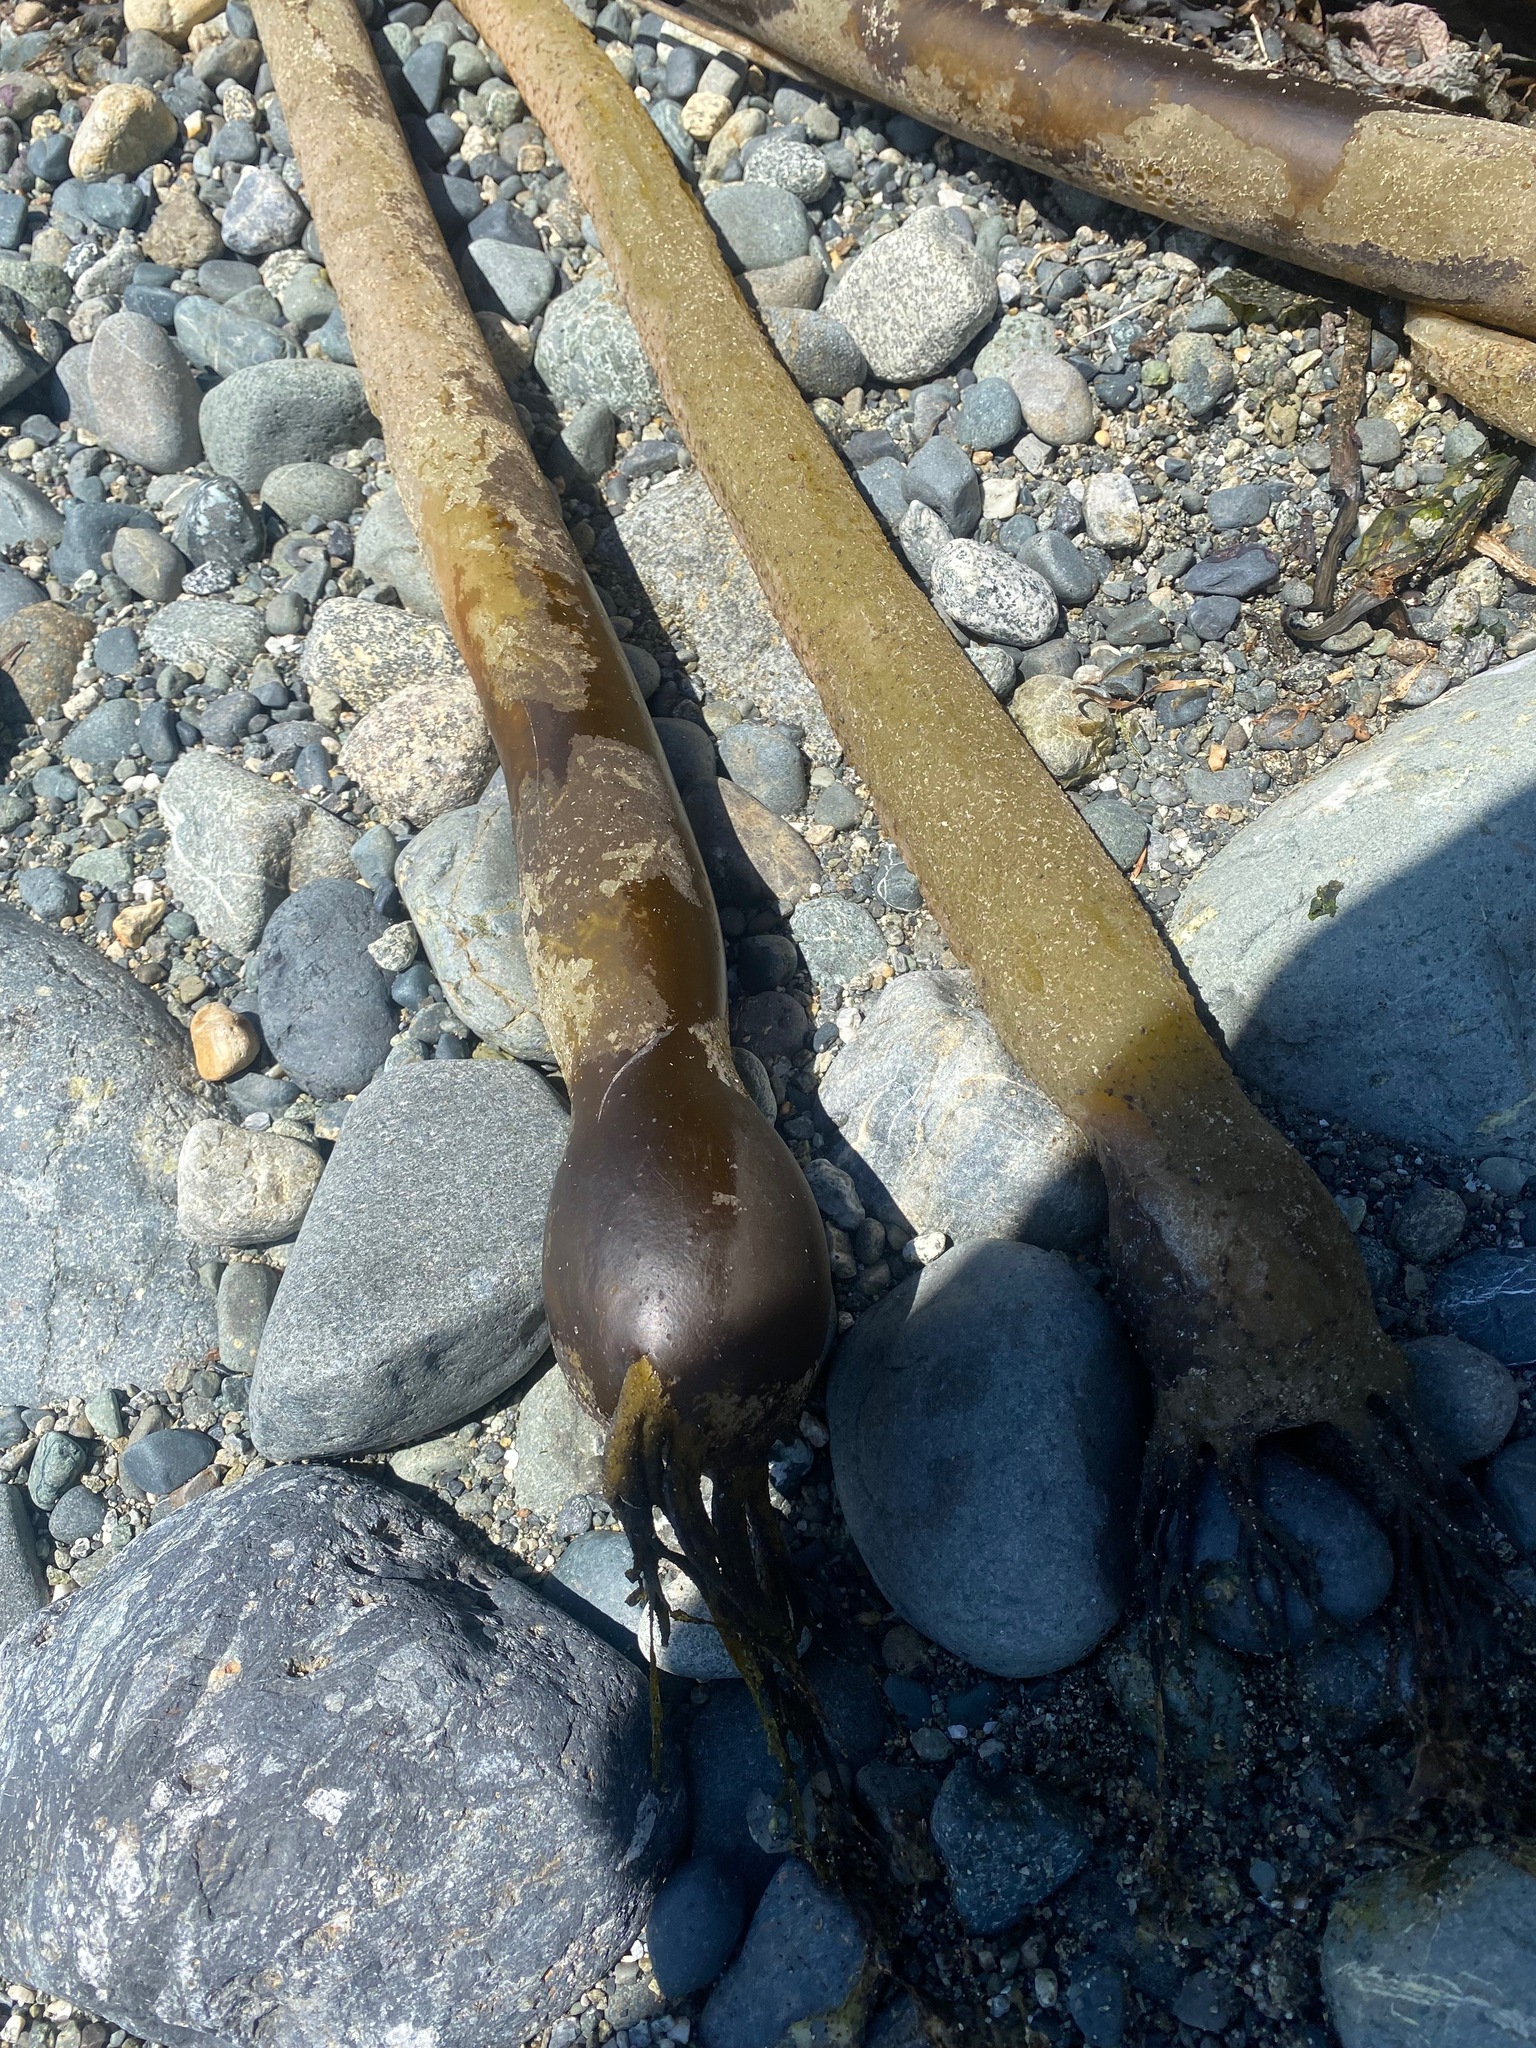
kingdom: Chromista
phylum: Ochrophyta
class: Phaeophyceae
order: Laminariales
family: Laminariaceae
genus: Nereocystis
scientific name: Nereocystis luetkeana
